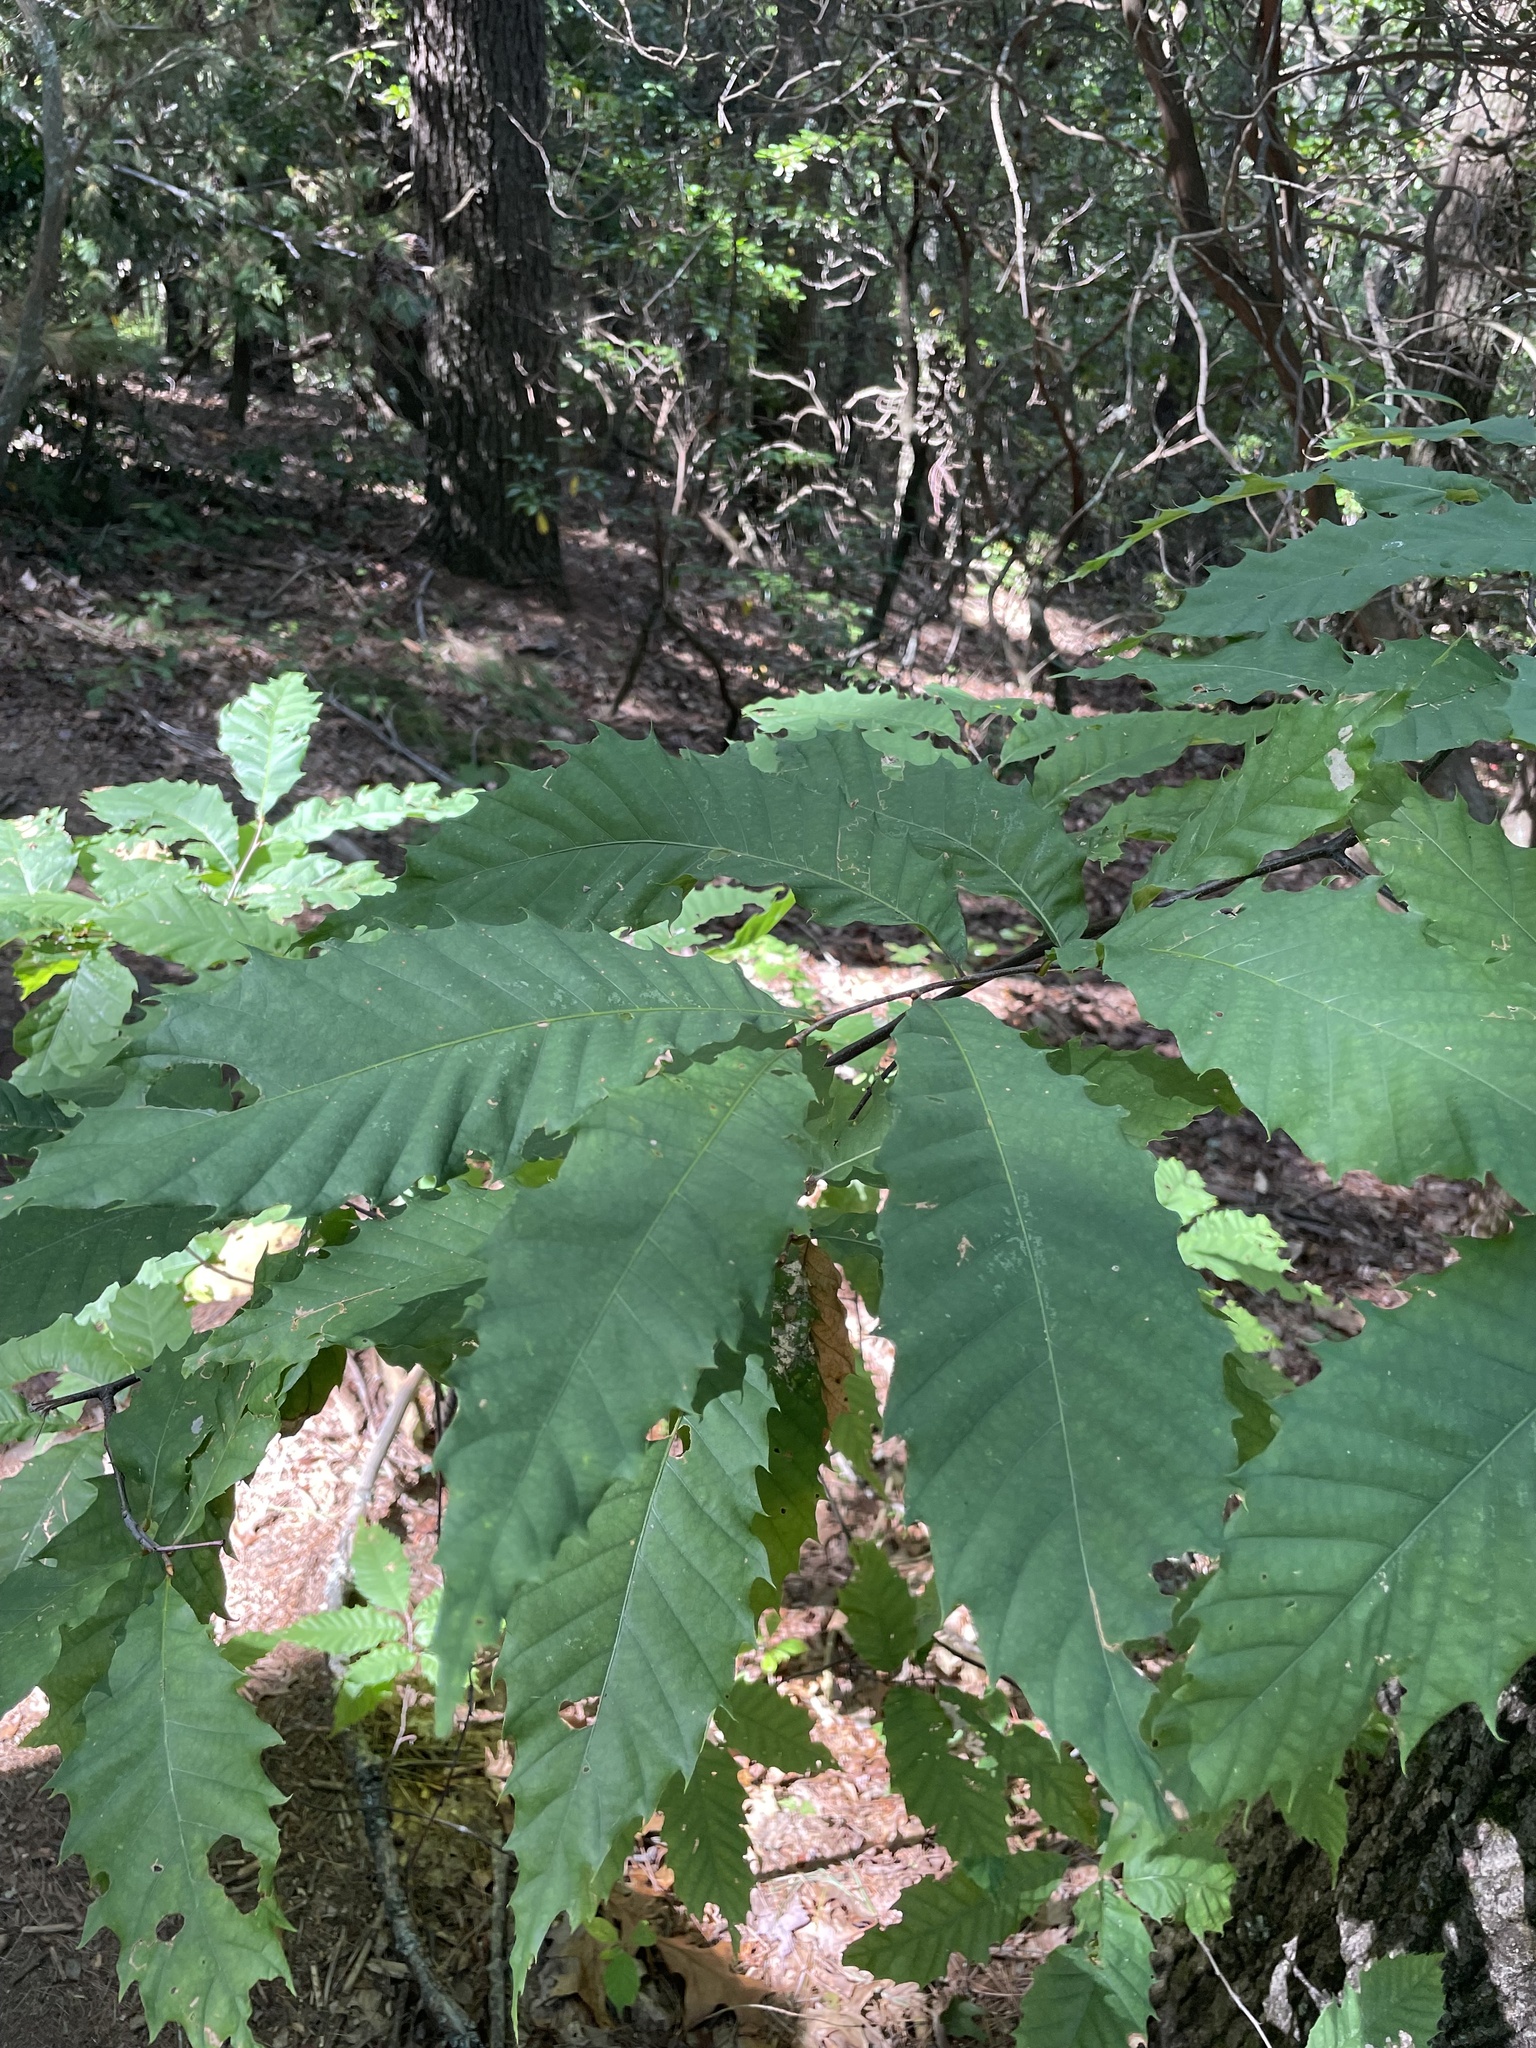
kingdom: Plantae
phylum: Tracheophyta
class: Magnoliopsida
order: Fagales
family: Fagaceae
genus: Castanea
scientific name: Castanea dentata
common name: American chestnut
